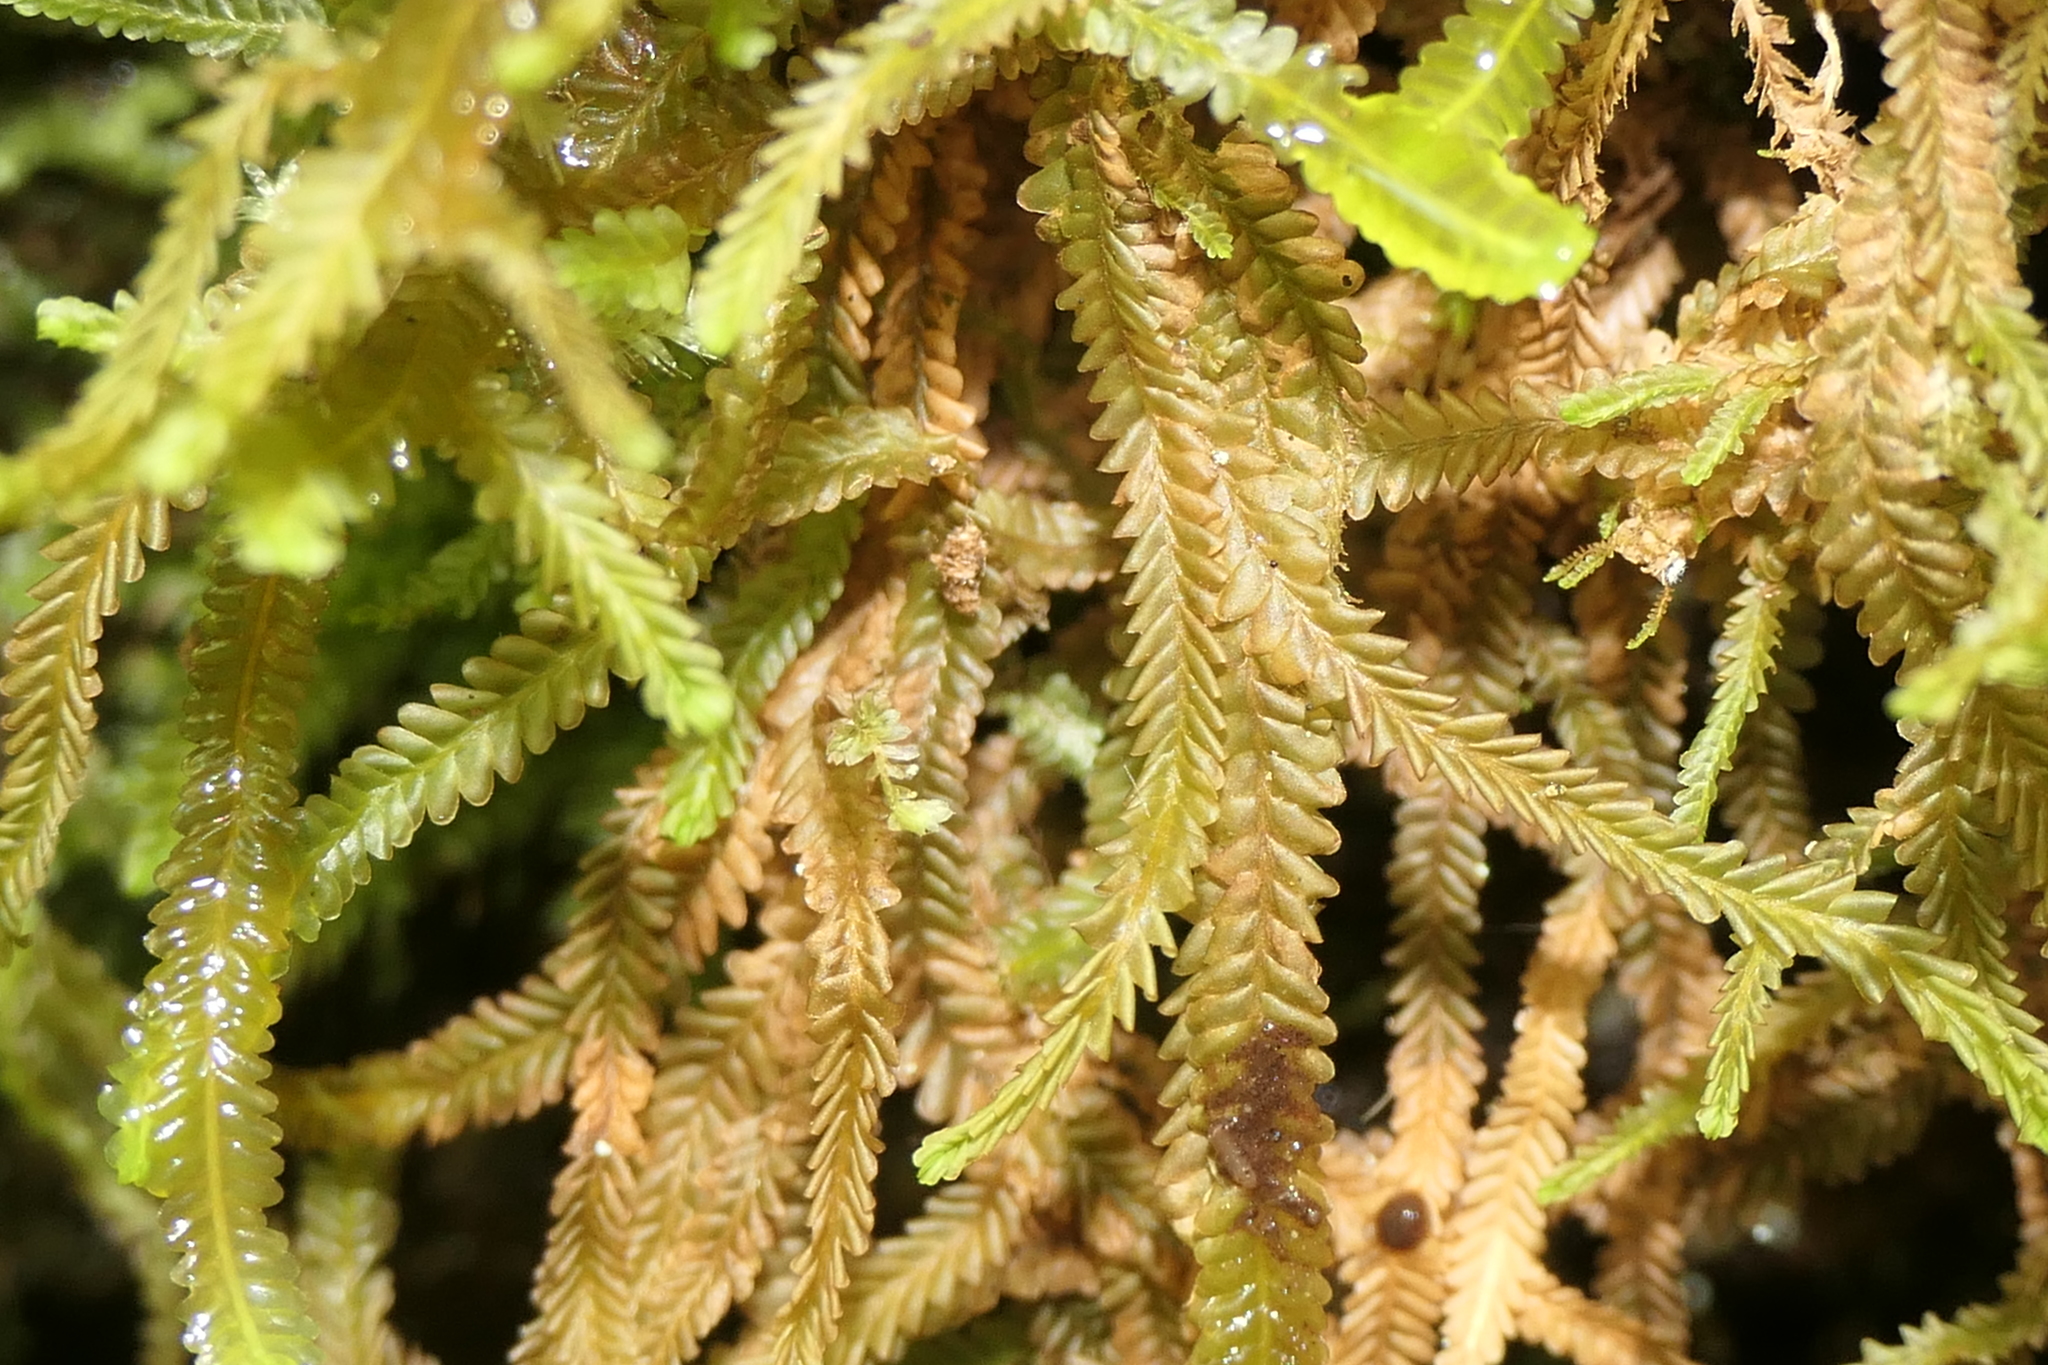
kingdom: Plantae
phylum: Marchantiophyta
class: Jungermanniopsida
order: Jungermanniales
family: Plagiochilaceae
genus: Plagiochila
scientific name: Plagiochila porelloides
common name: Lesser featherwort
